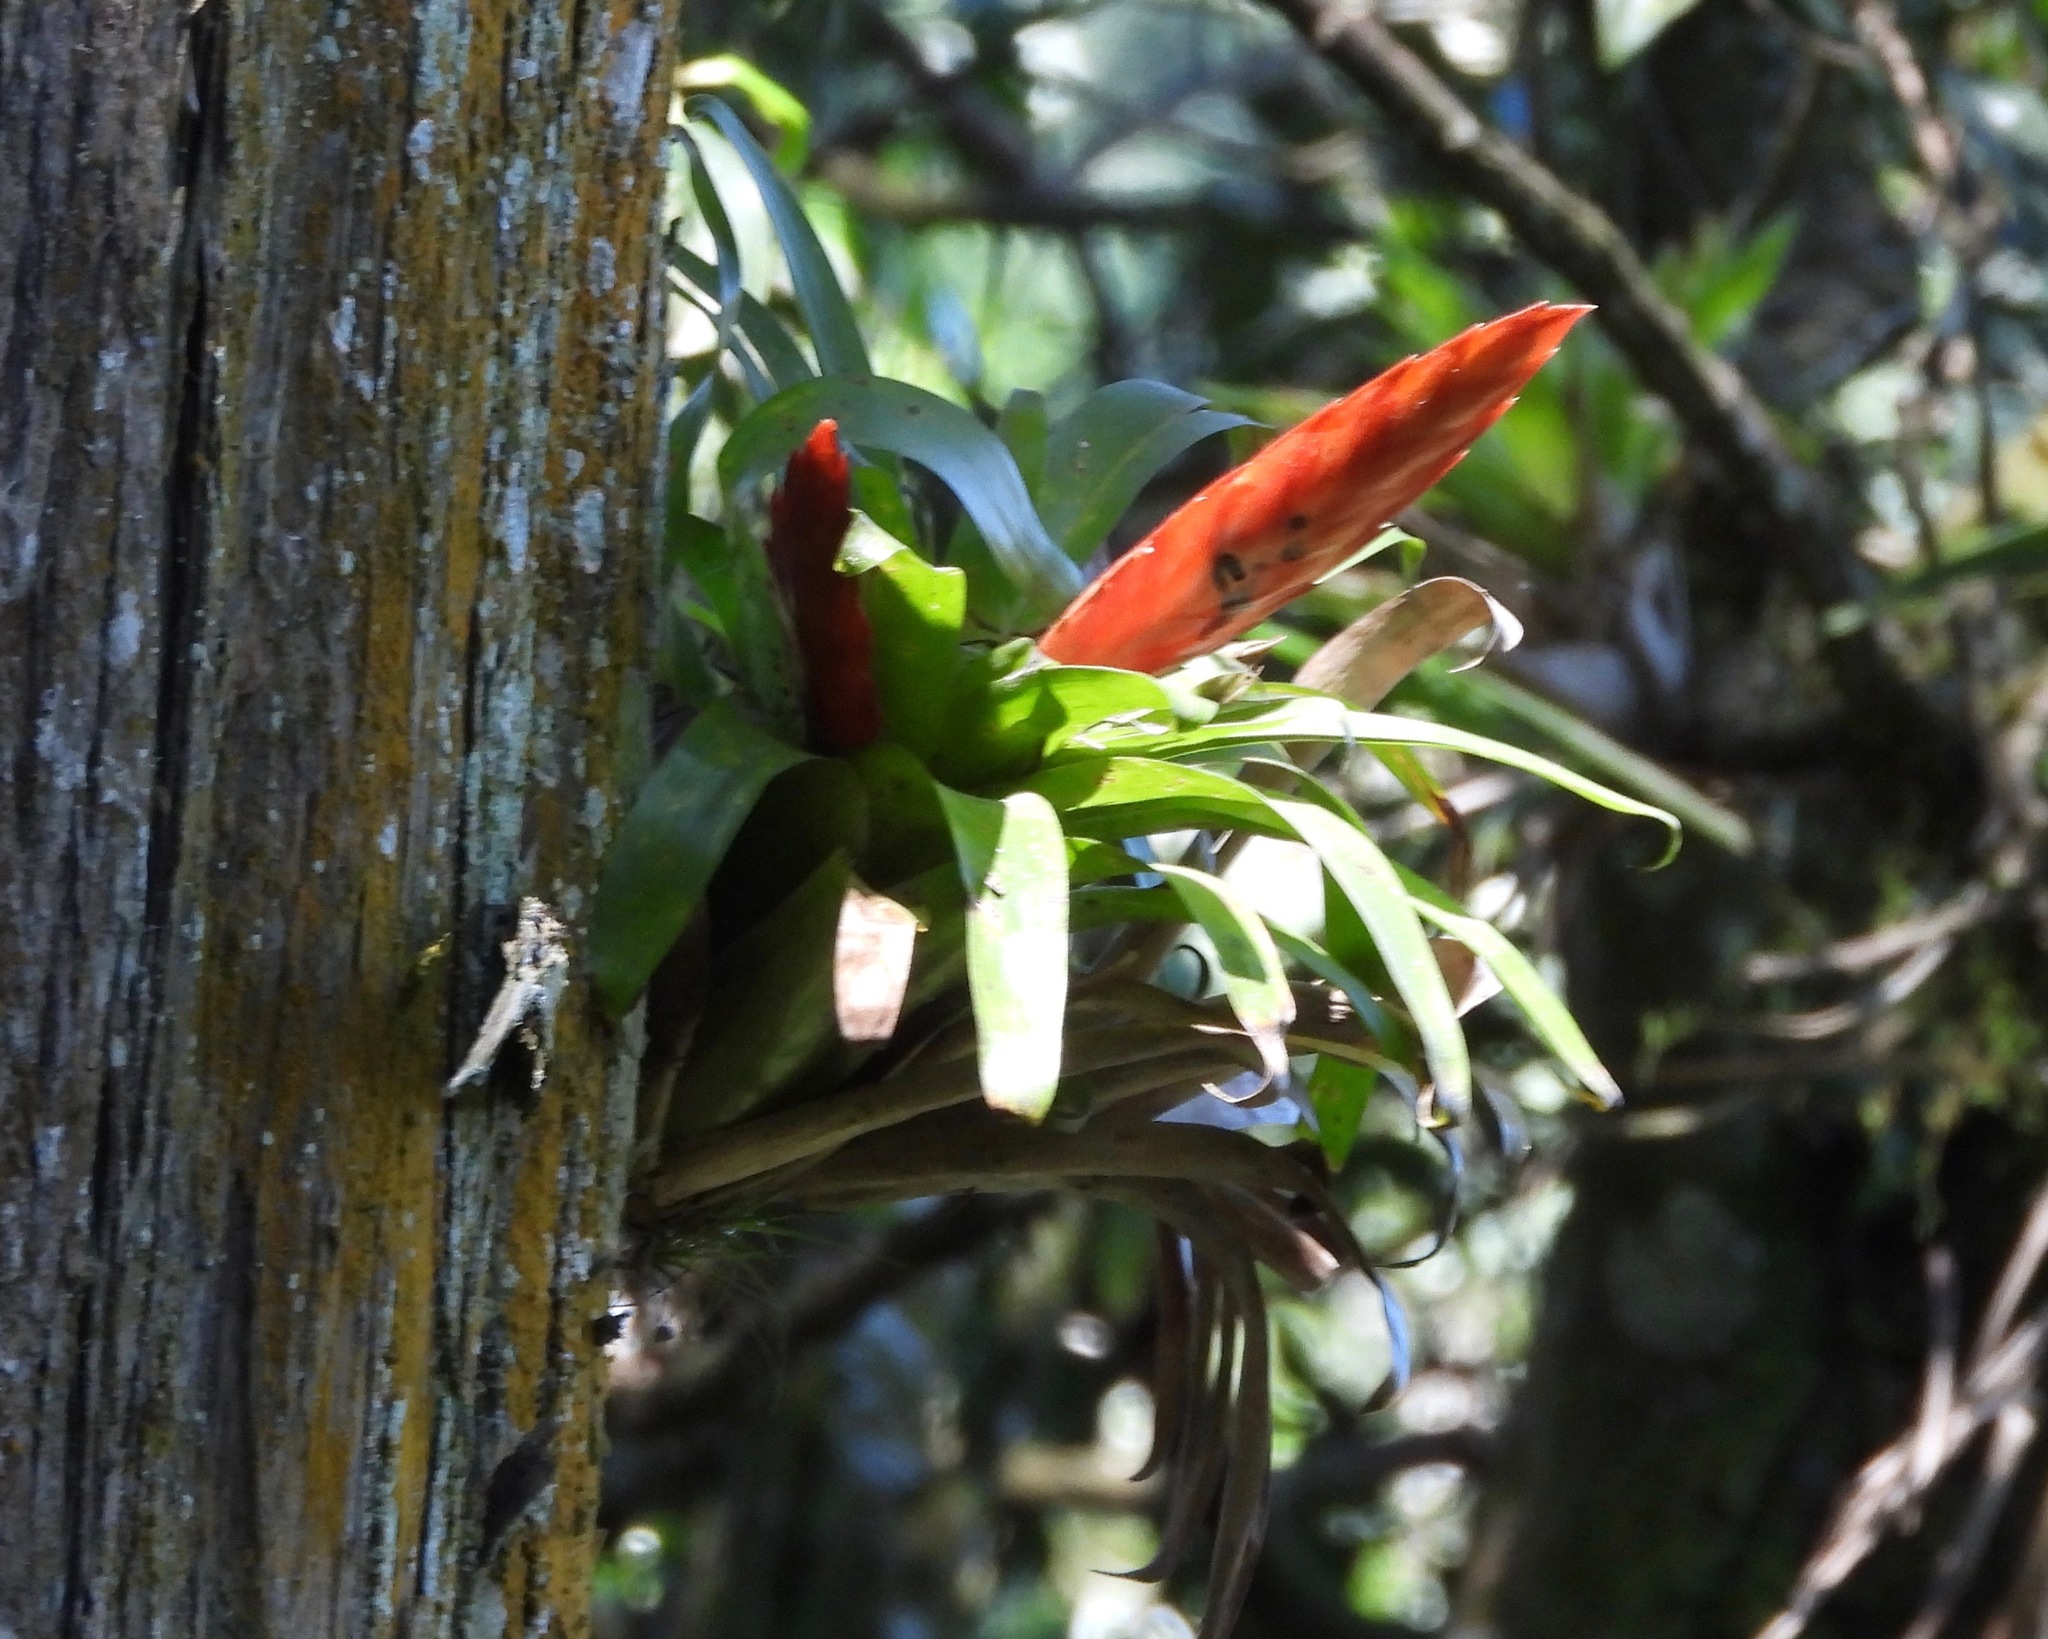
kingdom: Plantae
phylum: Tracheophyta
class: Liliopsida
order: Poales
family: Bromeliaceae
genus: Tillandsia
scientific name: Tillandsia multicaulis
